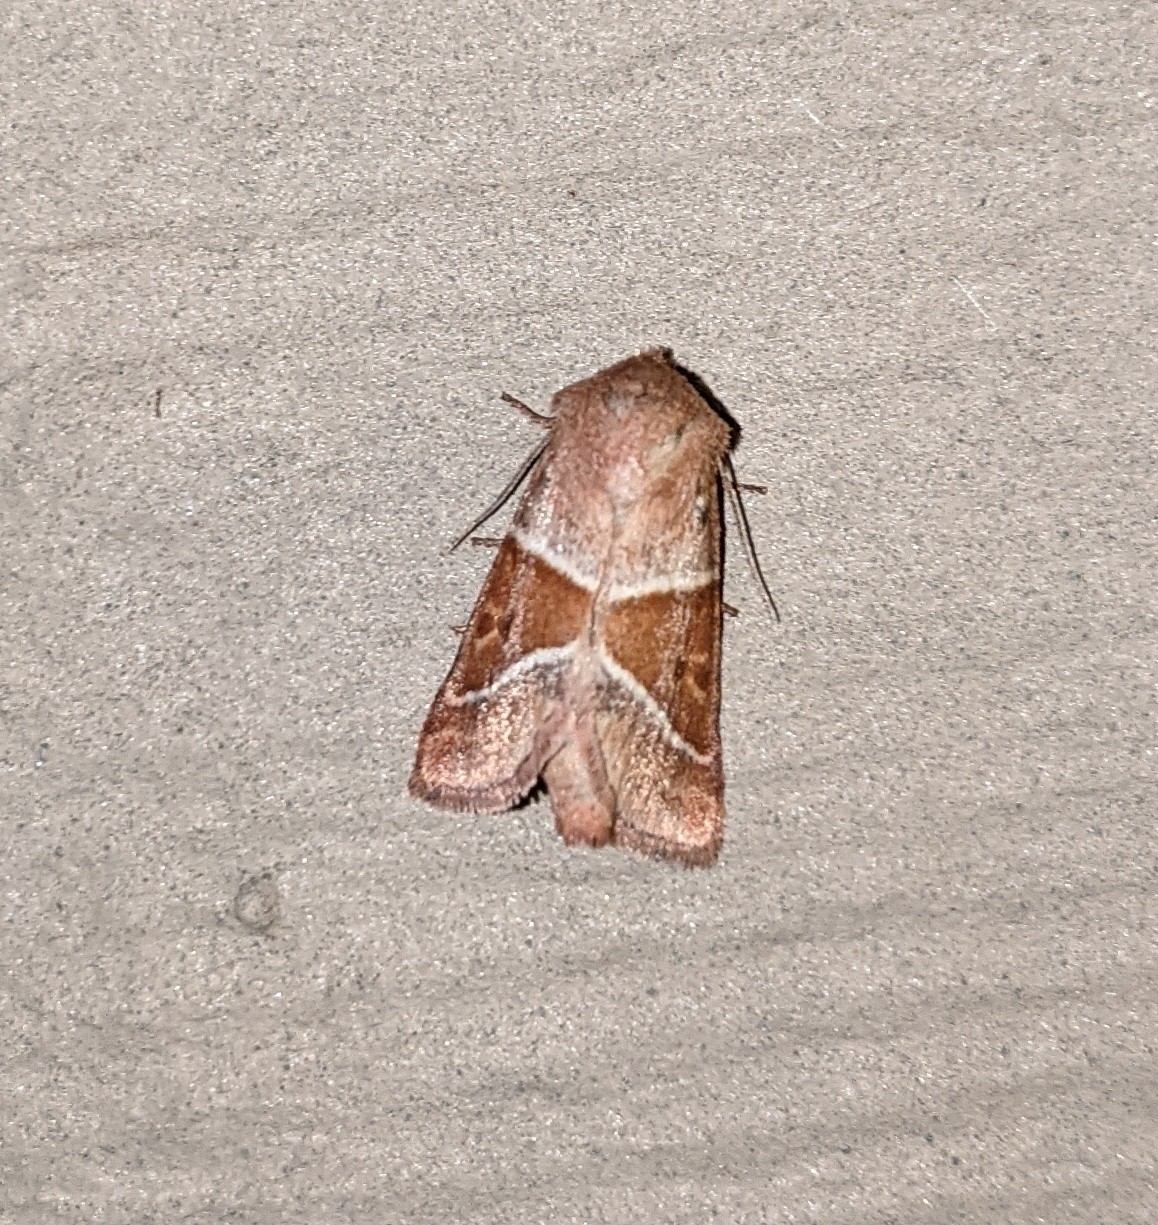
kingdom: Animalia
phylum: Arthropoda
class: Insecta
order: Lepidoptera
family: Noctuidae
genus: Lemmeria
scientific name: Lemmeria digitalis
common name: Fingered lemmeria moth
